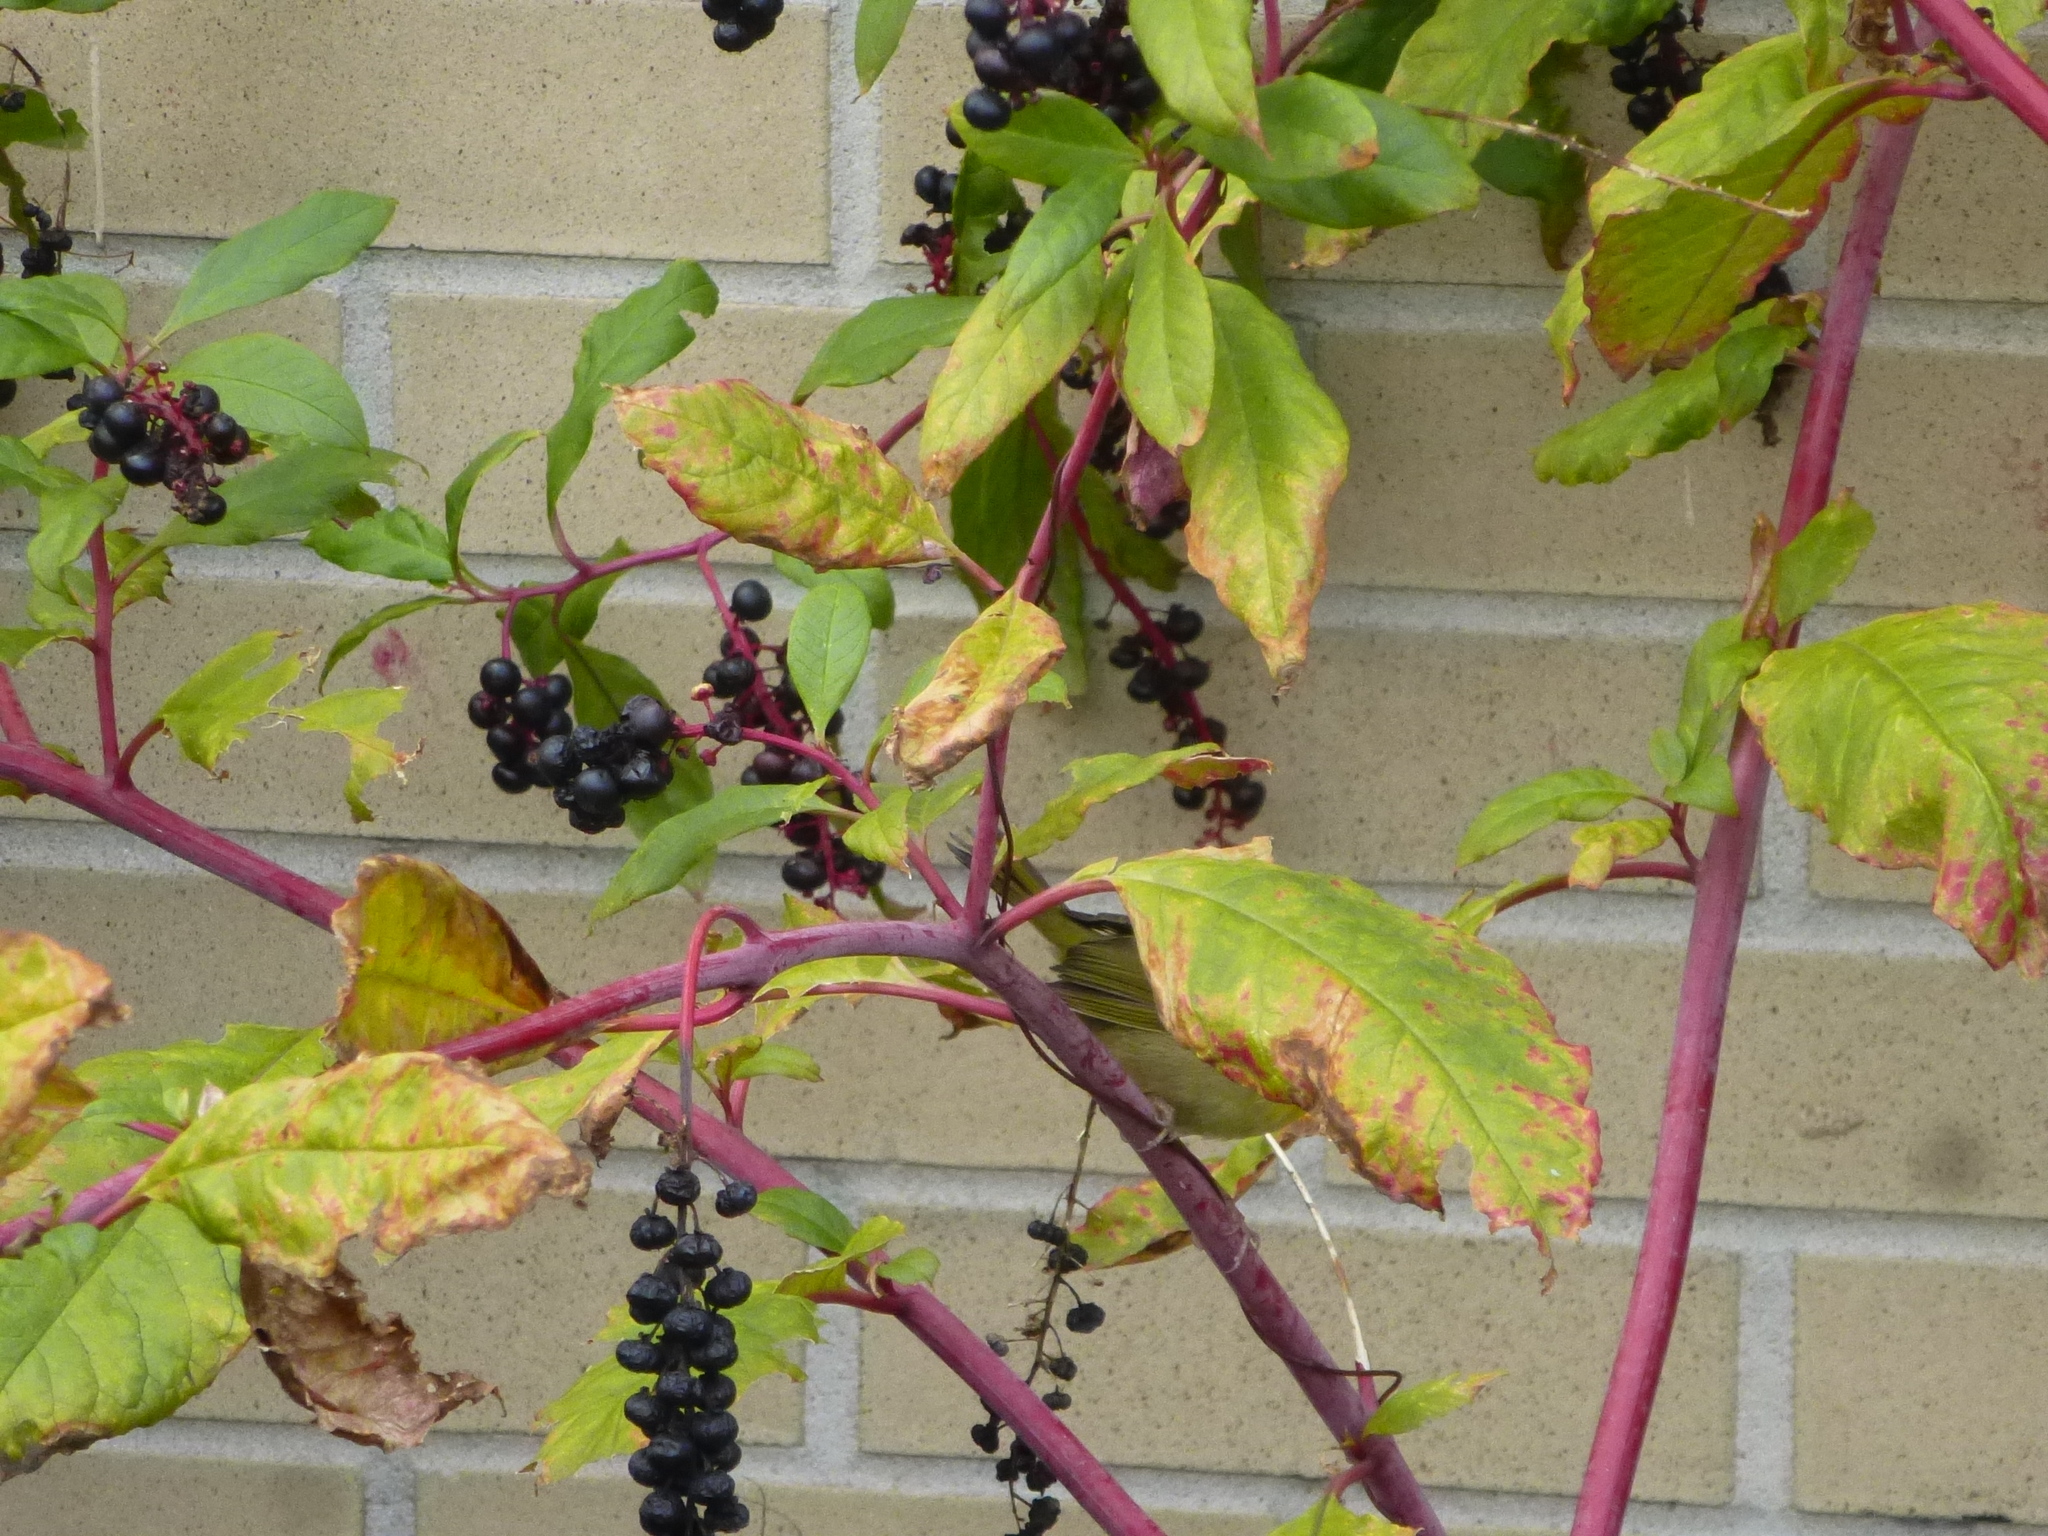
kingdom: Plantae
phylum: Tracheophyta
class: Magnoliopsida
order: Caryophyllales
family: Phytolaccaceae
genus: Phytolacca
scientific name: Phytolacca americana
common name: American pokeweed
